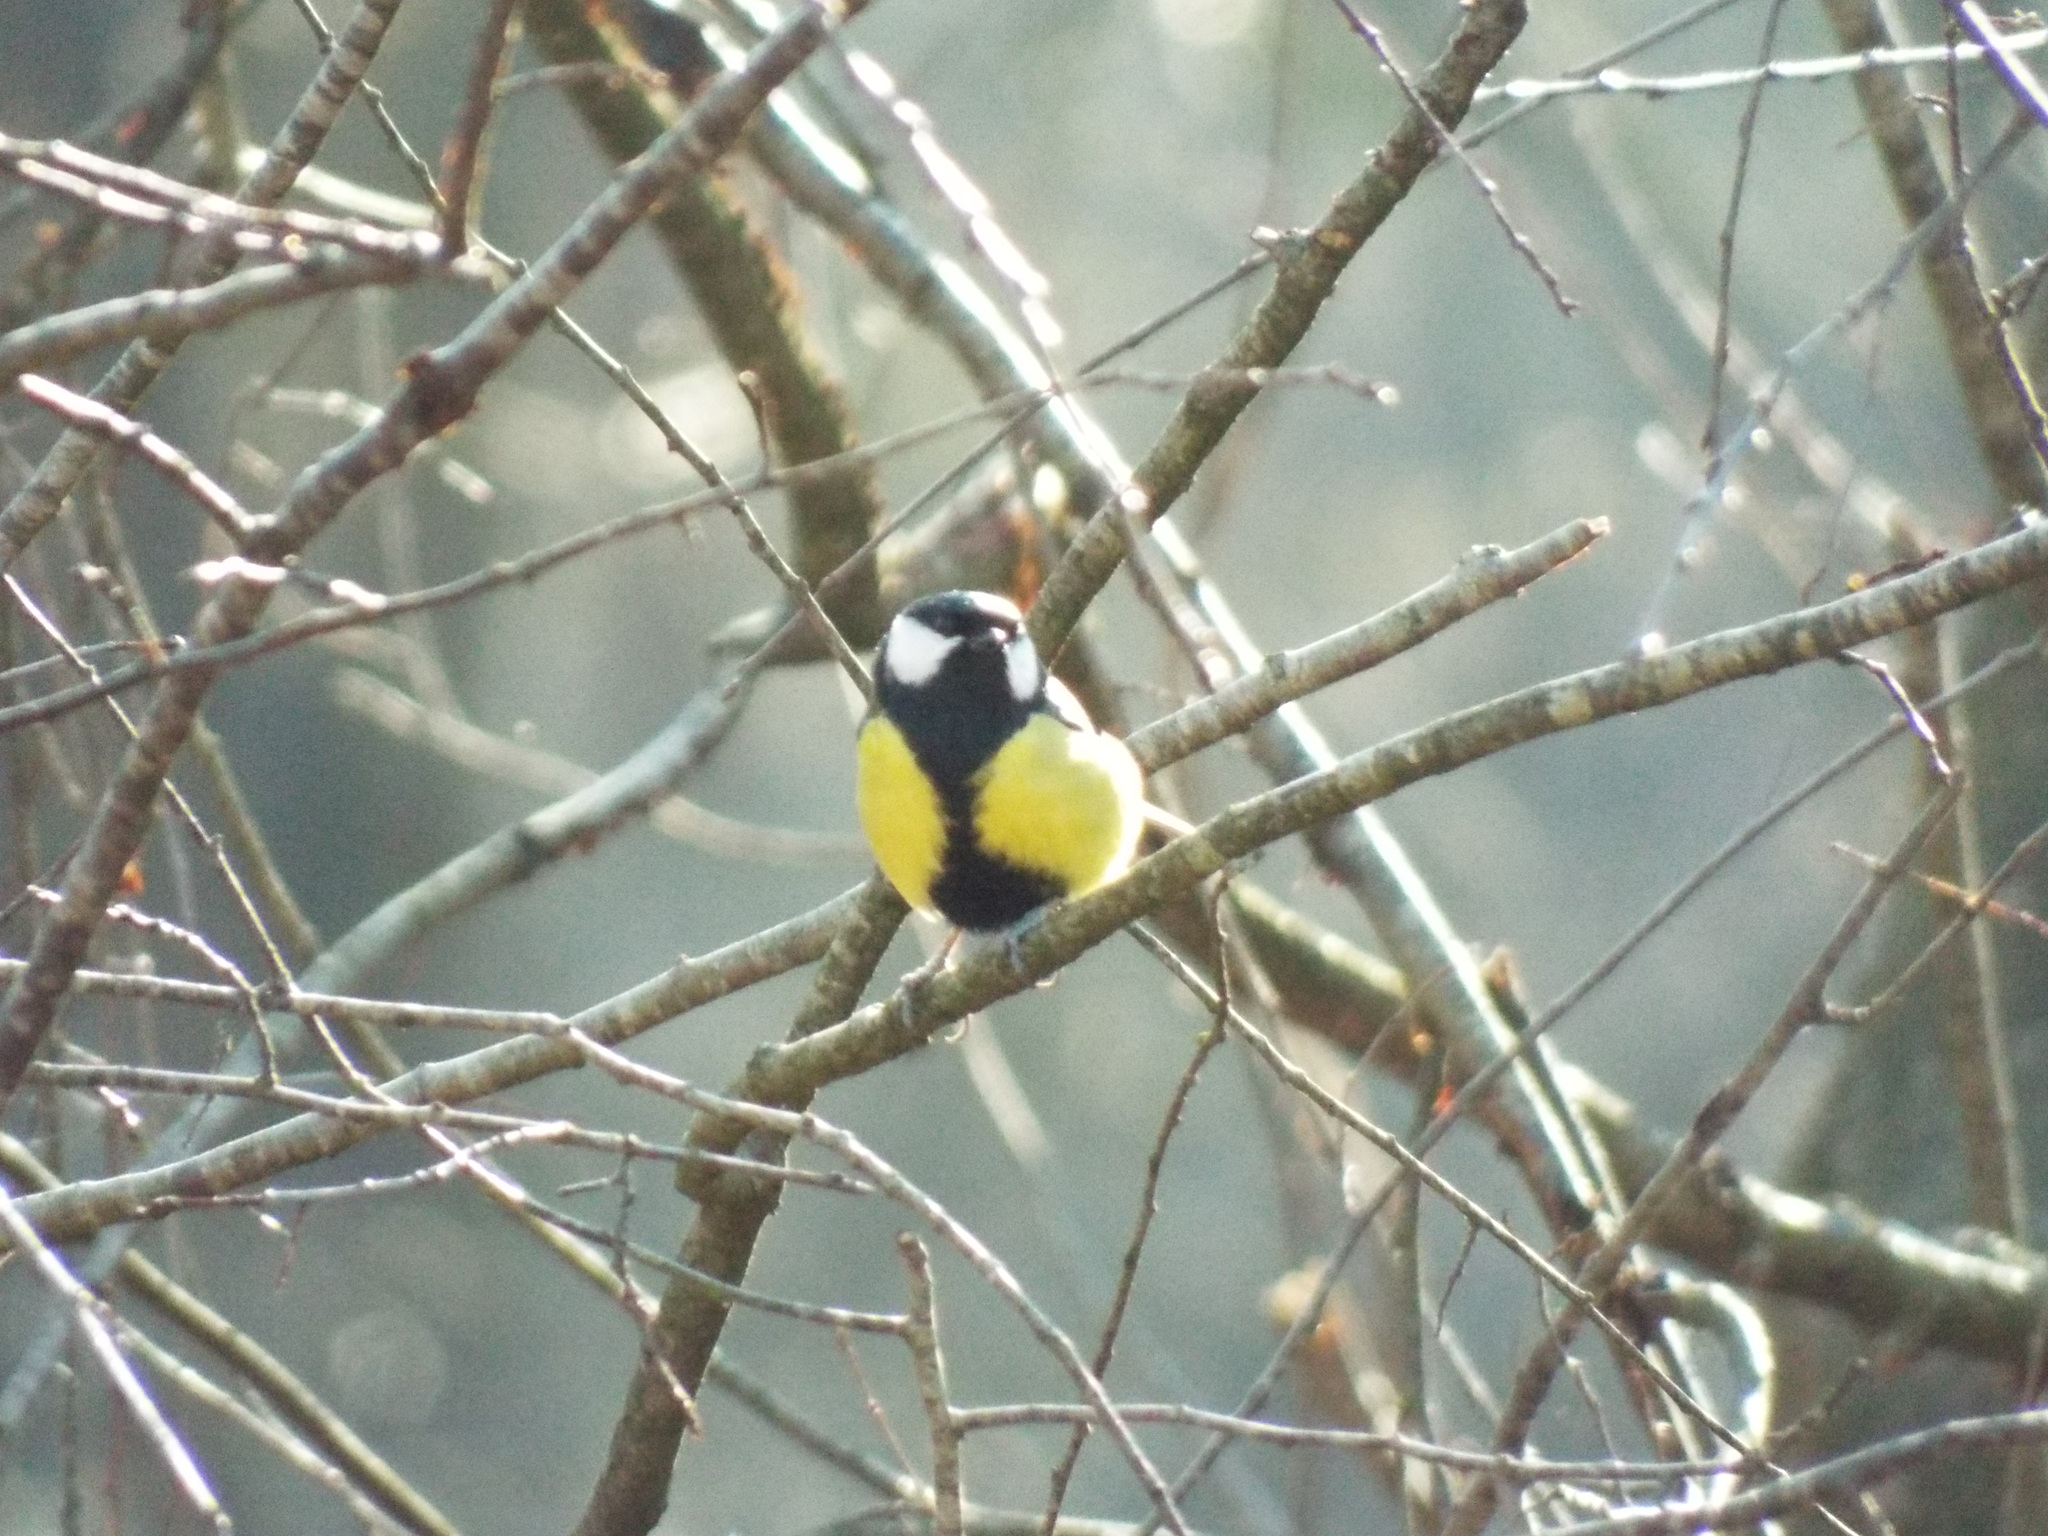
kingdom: Animalia
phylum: Chordata
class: Aves
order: Passeriformes
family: Paridae
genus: Parus
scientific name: Parus major
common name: Great tit
